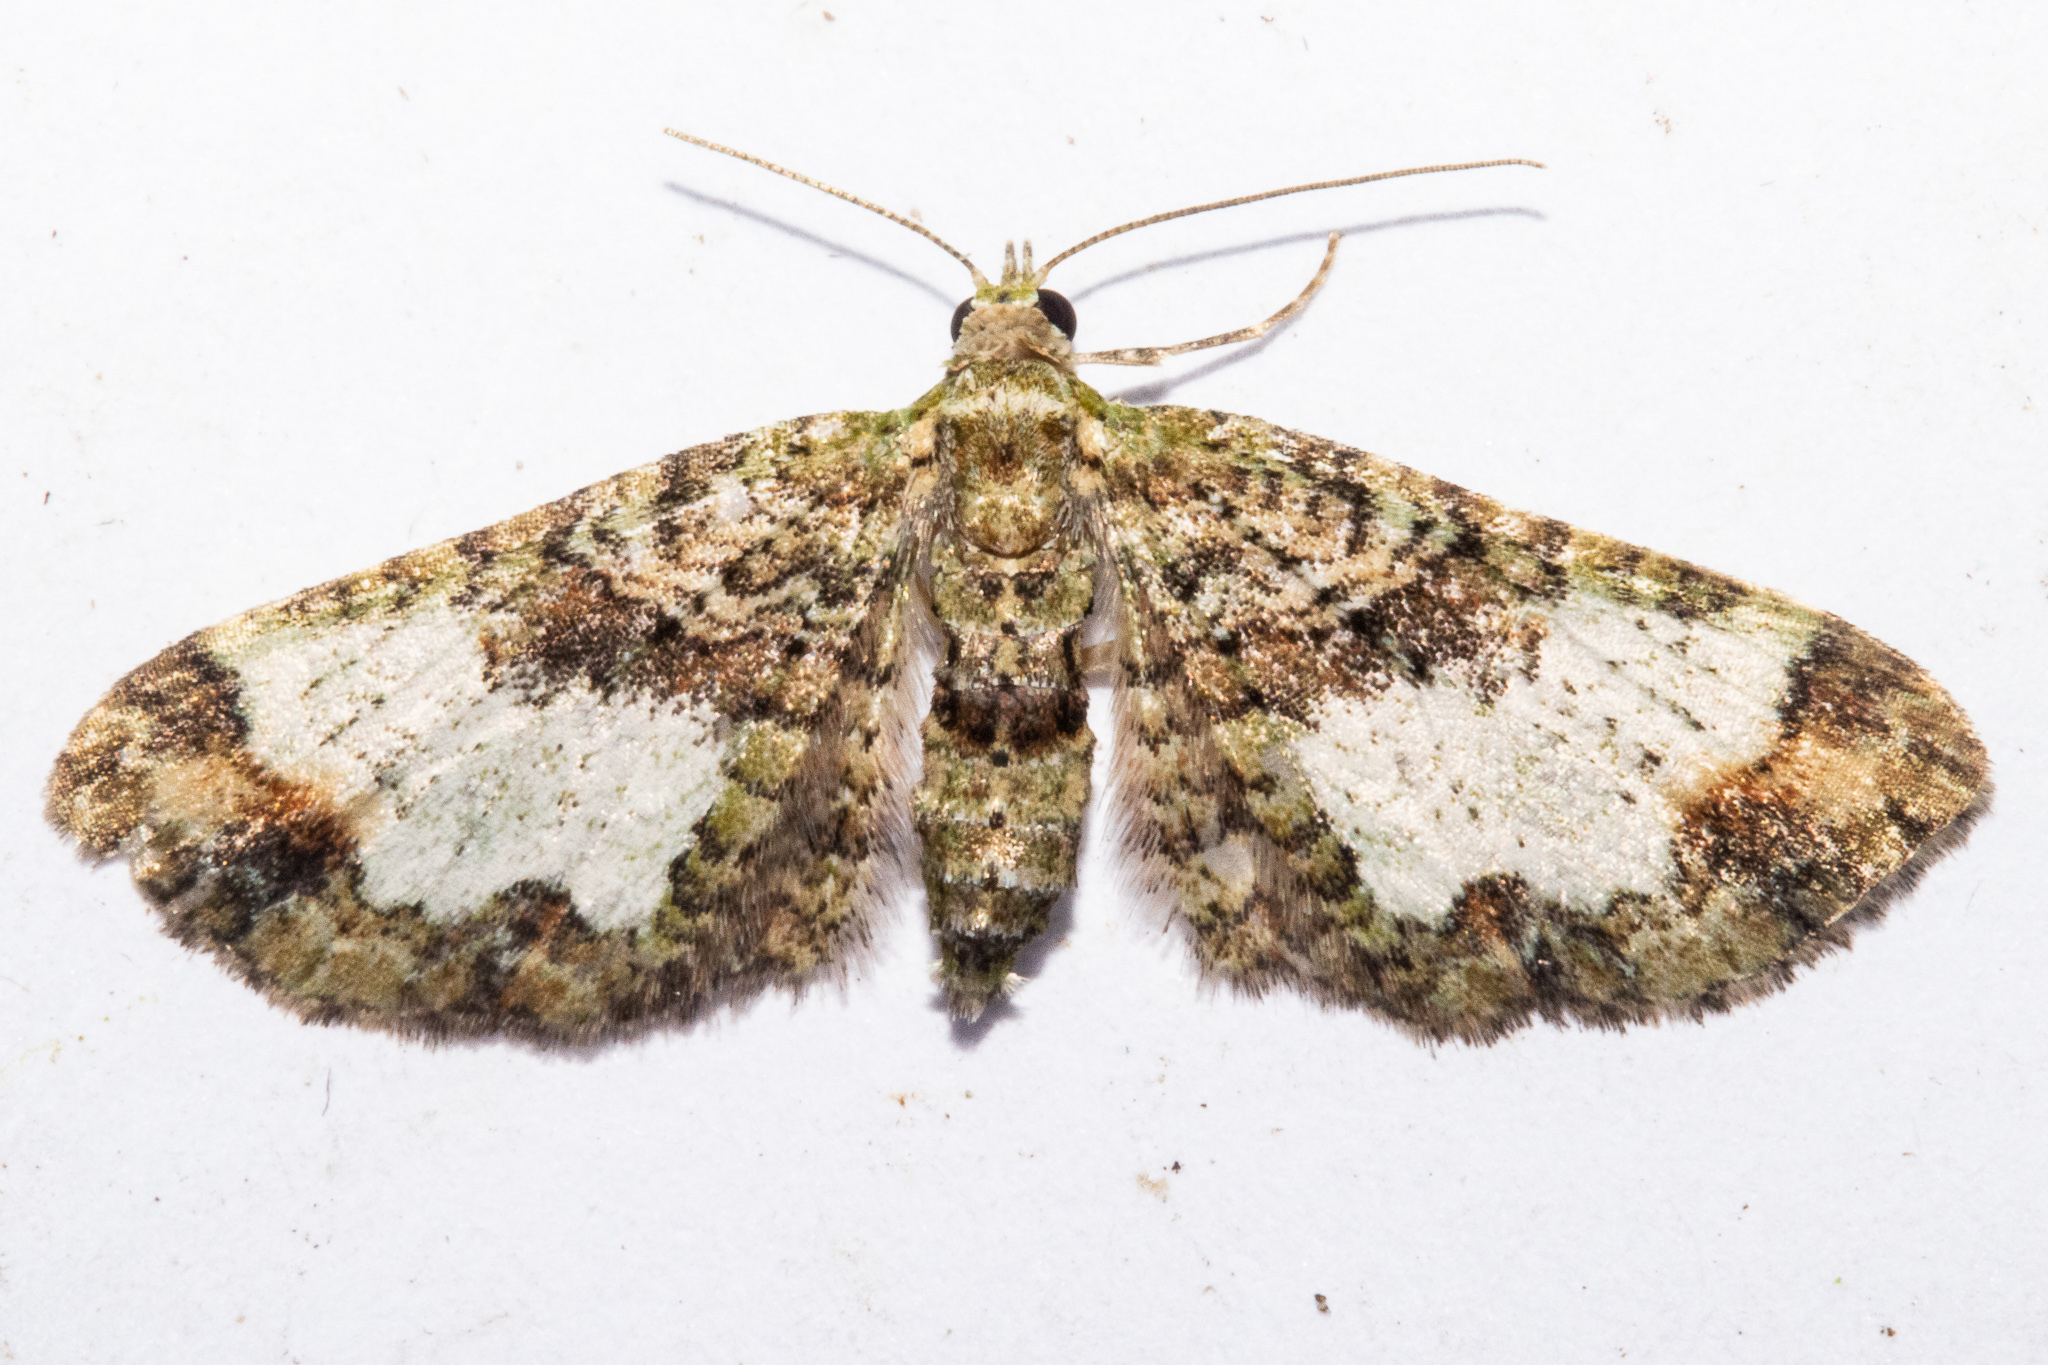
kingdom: Animalia
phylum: Arthropoda
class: Insecta
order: Lepidoptera
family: Geometridae
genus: Idaea
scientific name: Idaea mutanda
